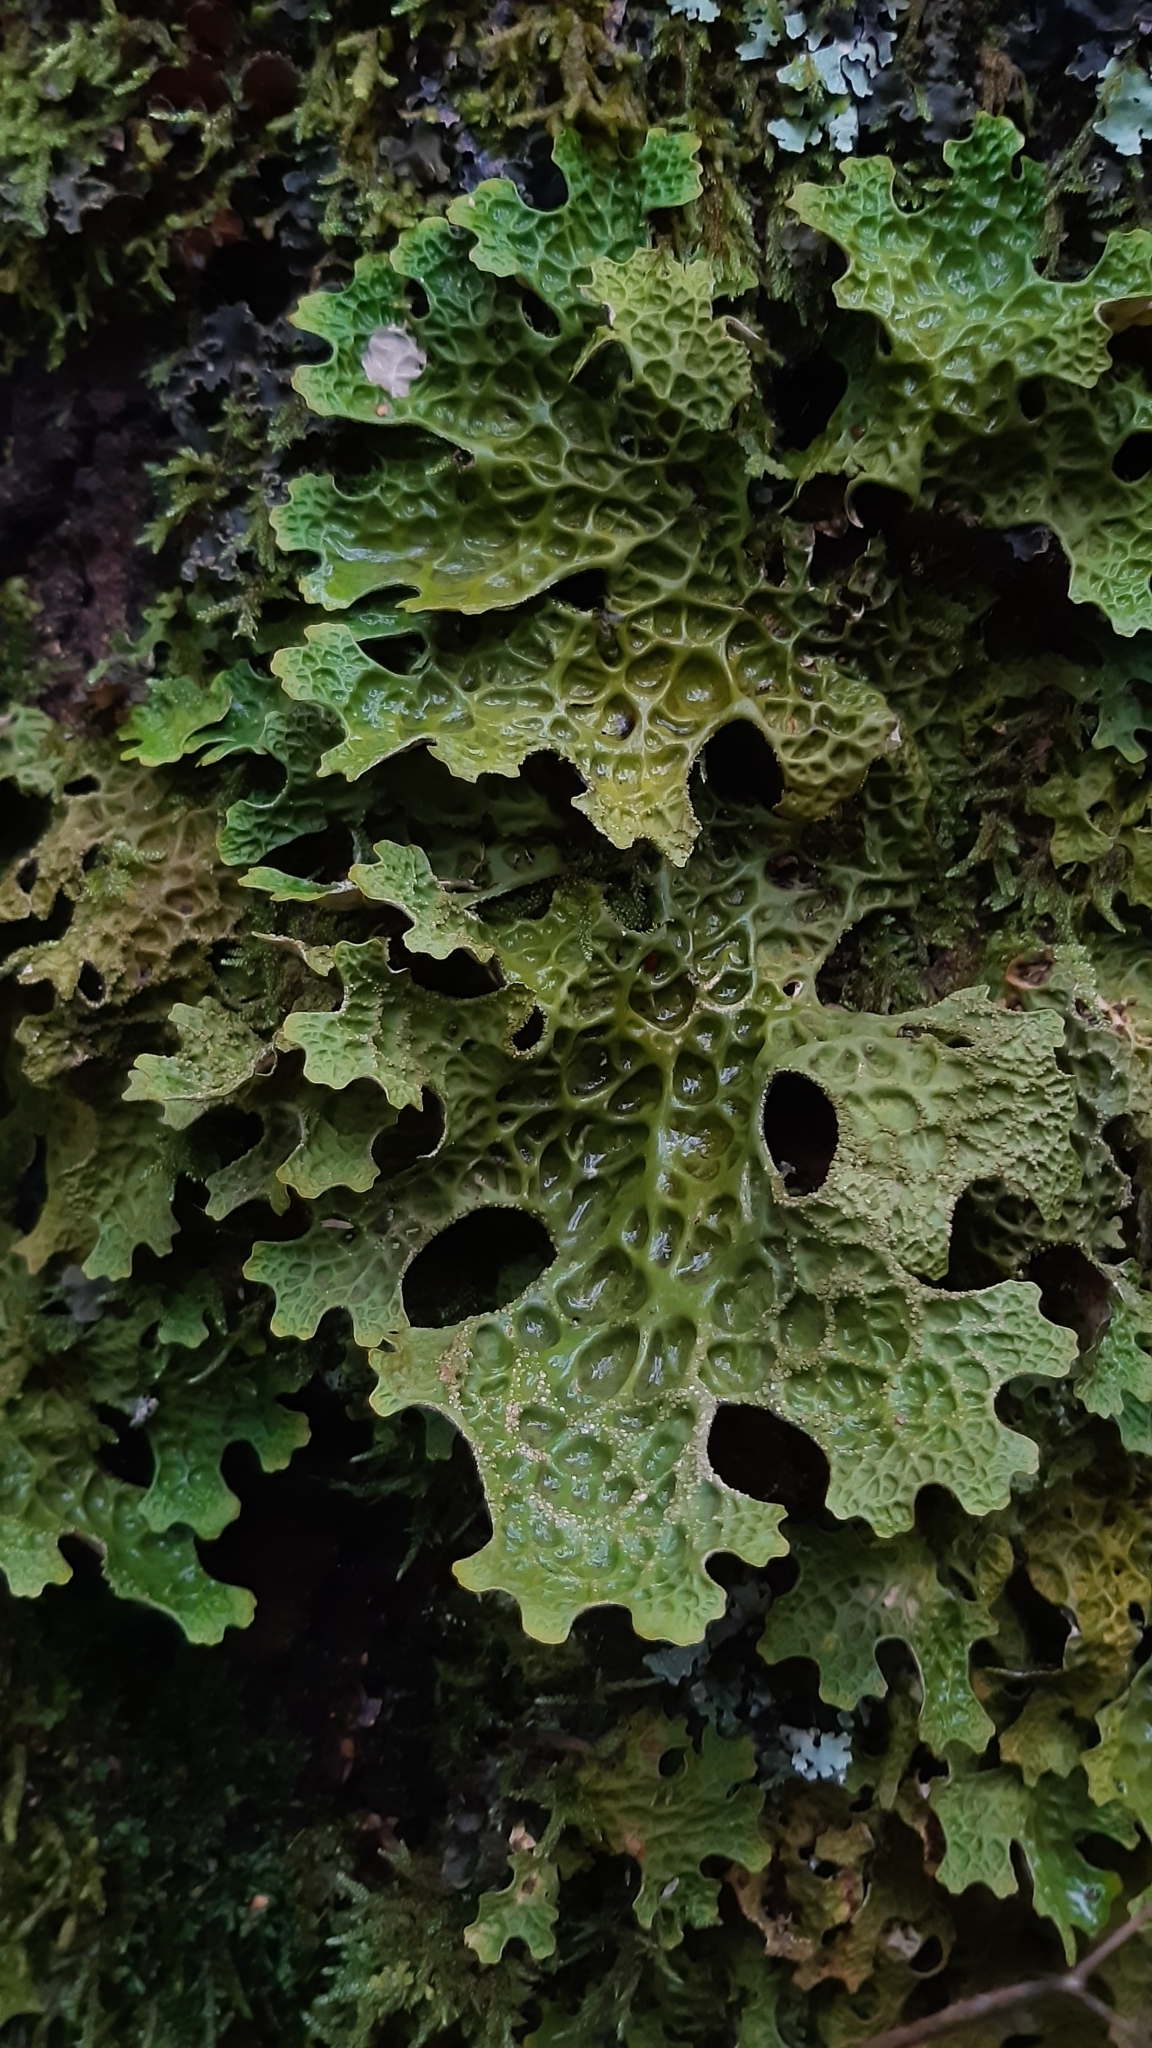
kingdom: Fungi
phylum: Ascomycota
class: Lecanoromycetes
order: Peltigerales
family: Lobariaceae
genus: Lobaria
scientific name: Lobaria pulmonaria
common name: Lungwort
